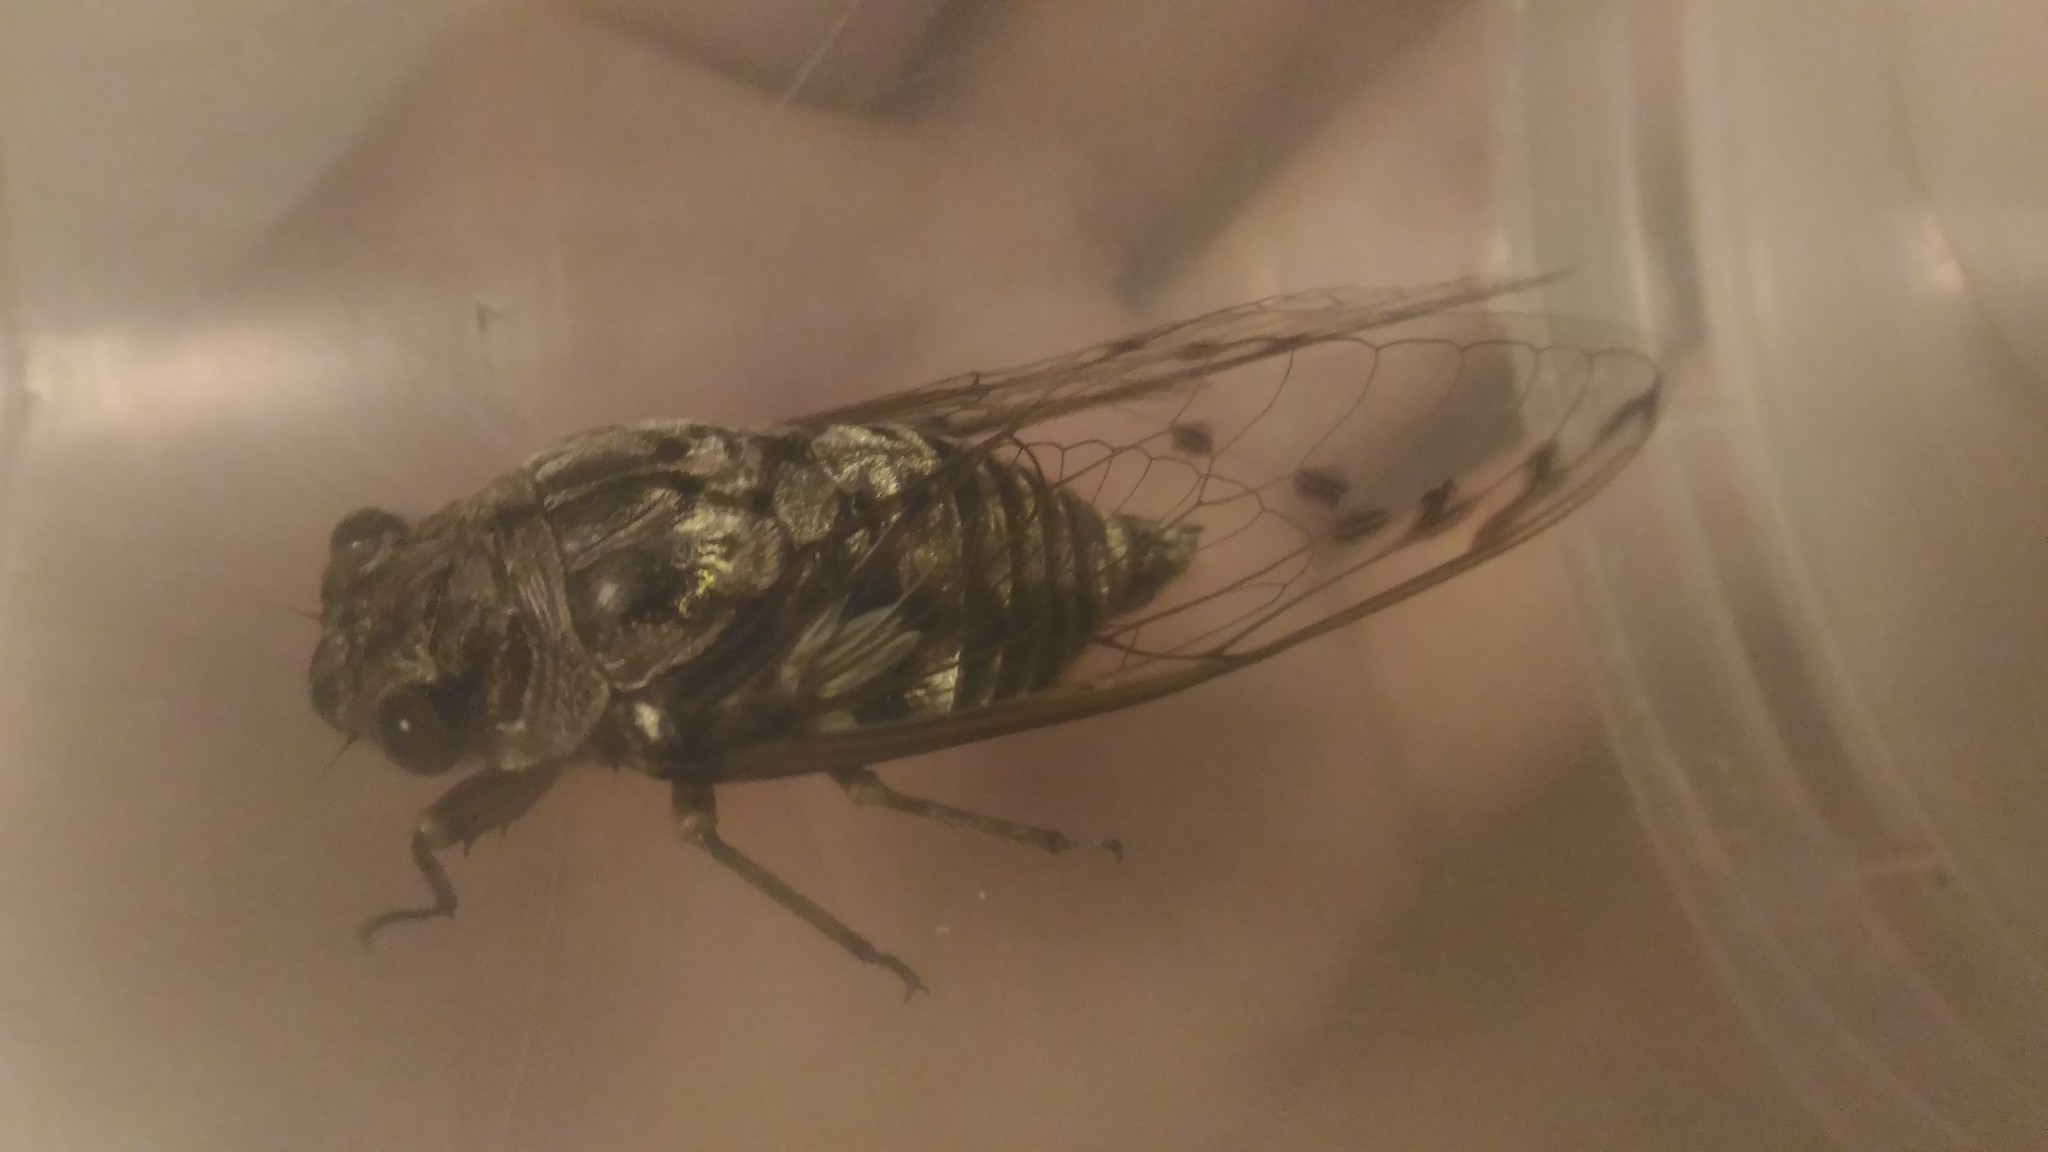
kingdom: Animalia
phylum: Arthropoda
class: Insecta
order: Hemiptera
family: Cicadidae
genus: Quesada
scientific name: Quesada sodalis
